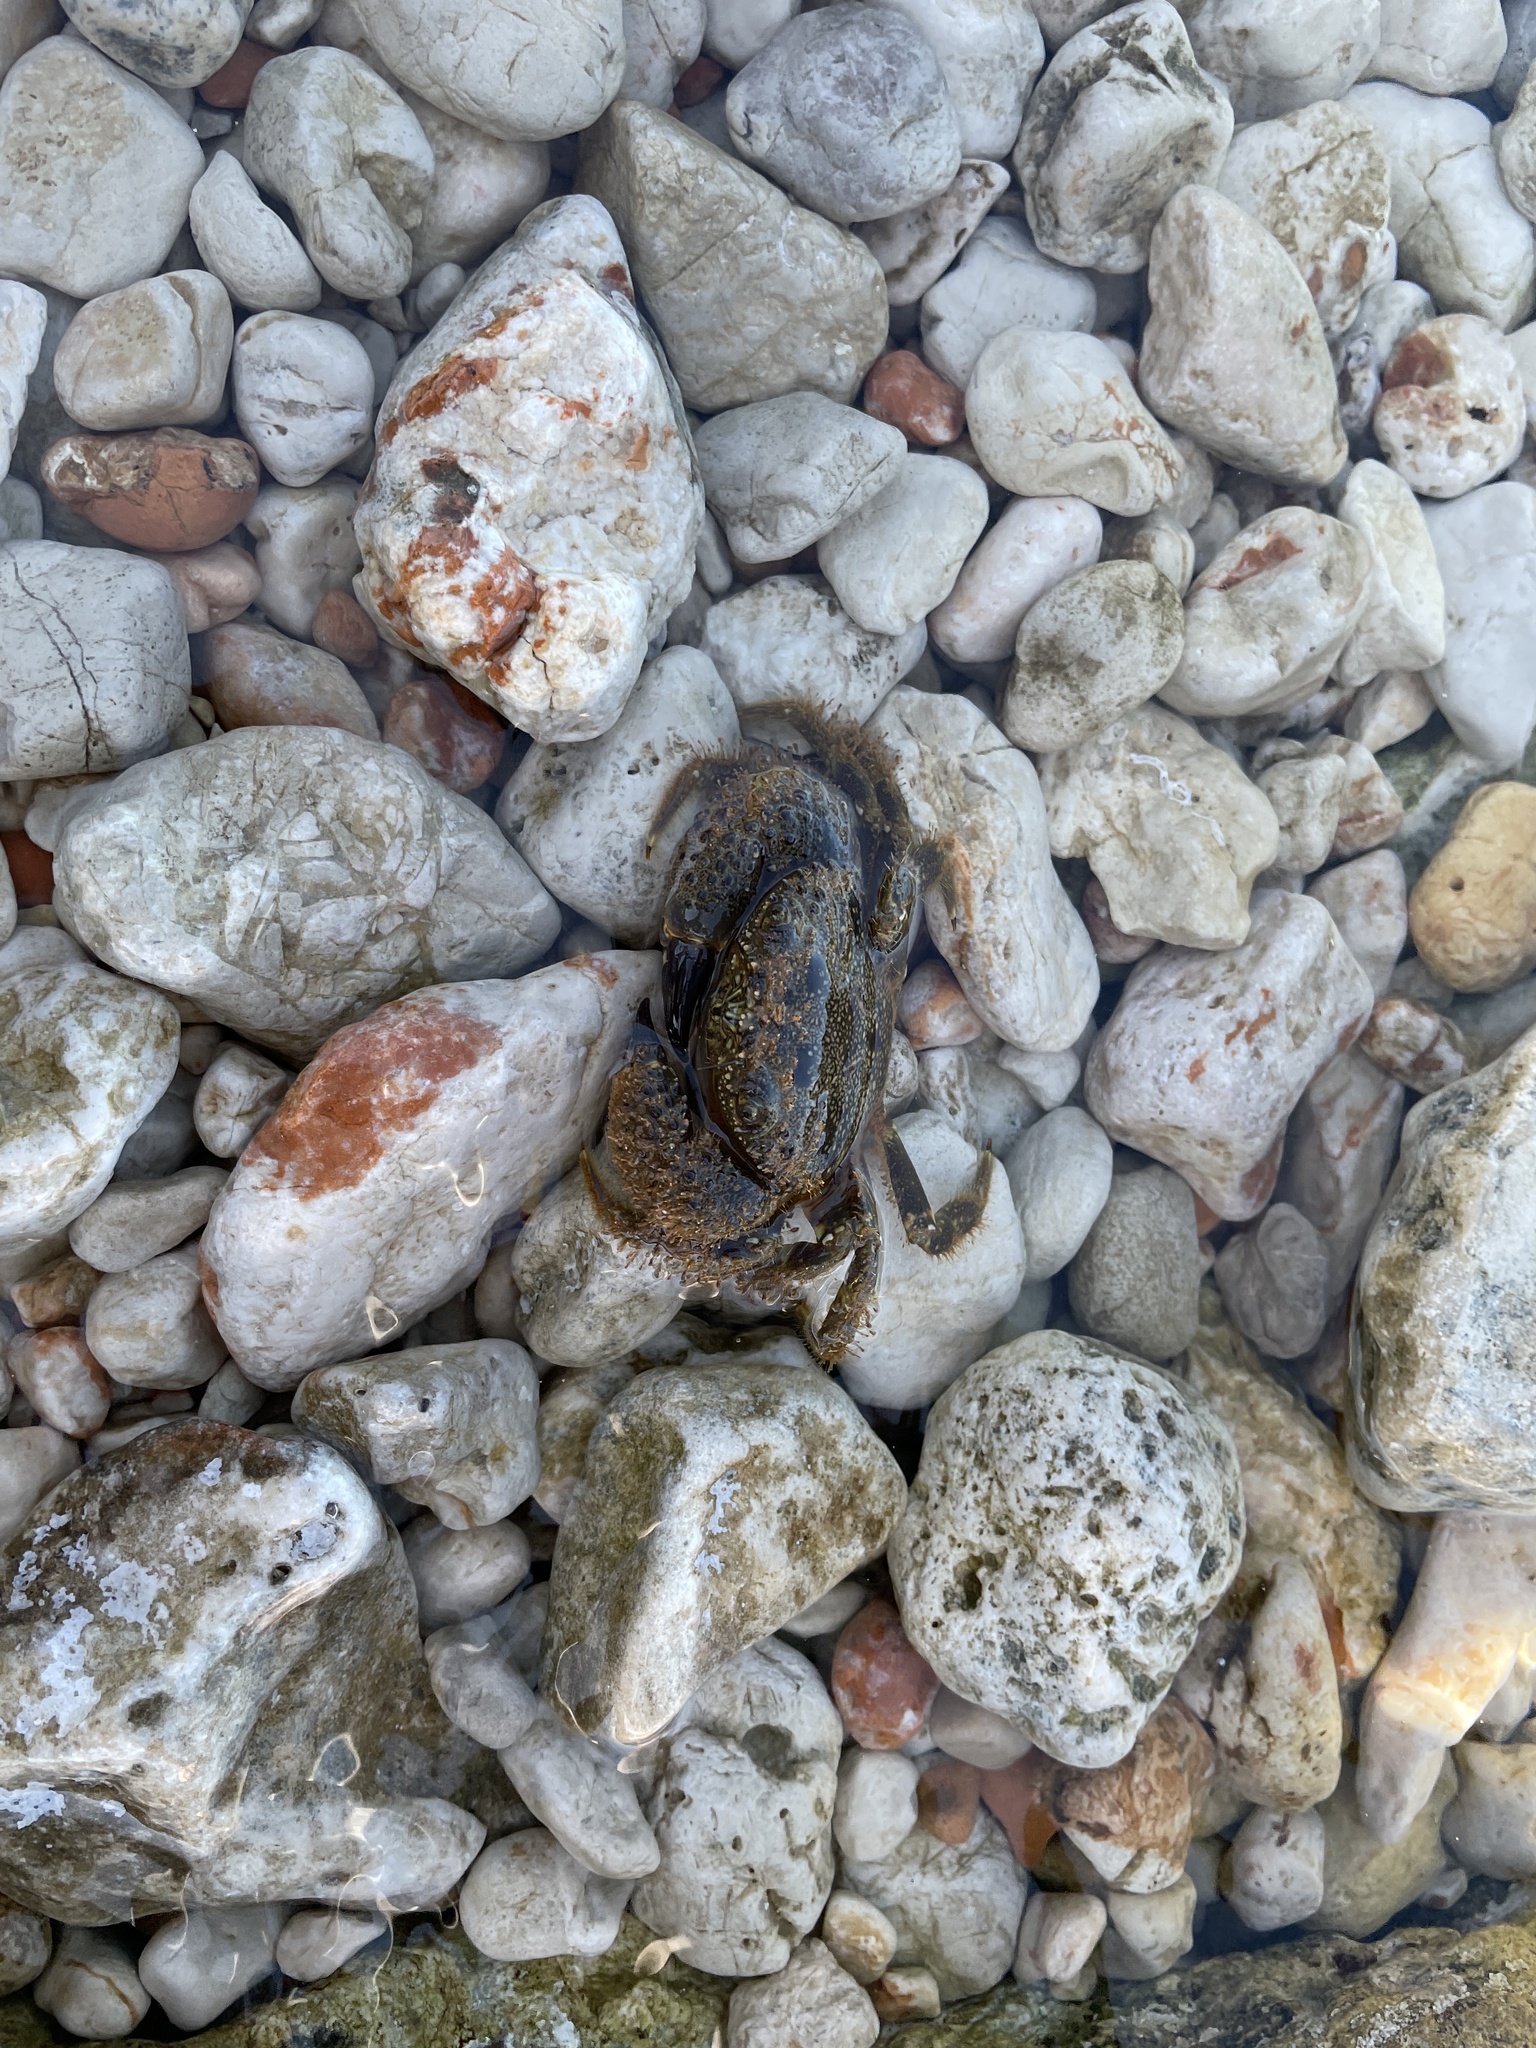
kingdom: Animalia
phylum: Arthropoda
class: Malacostraca
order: Decapoda
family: Eriphiidae
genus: Eriphia
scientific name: Eriphia verrucosa
